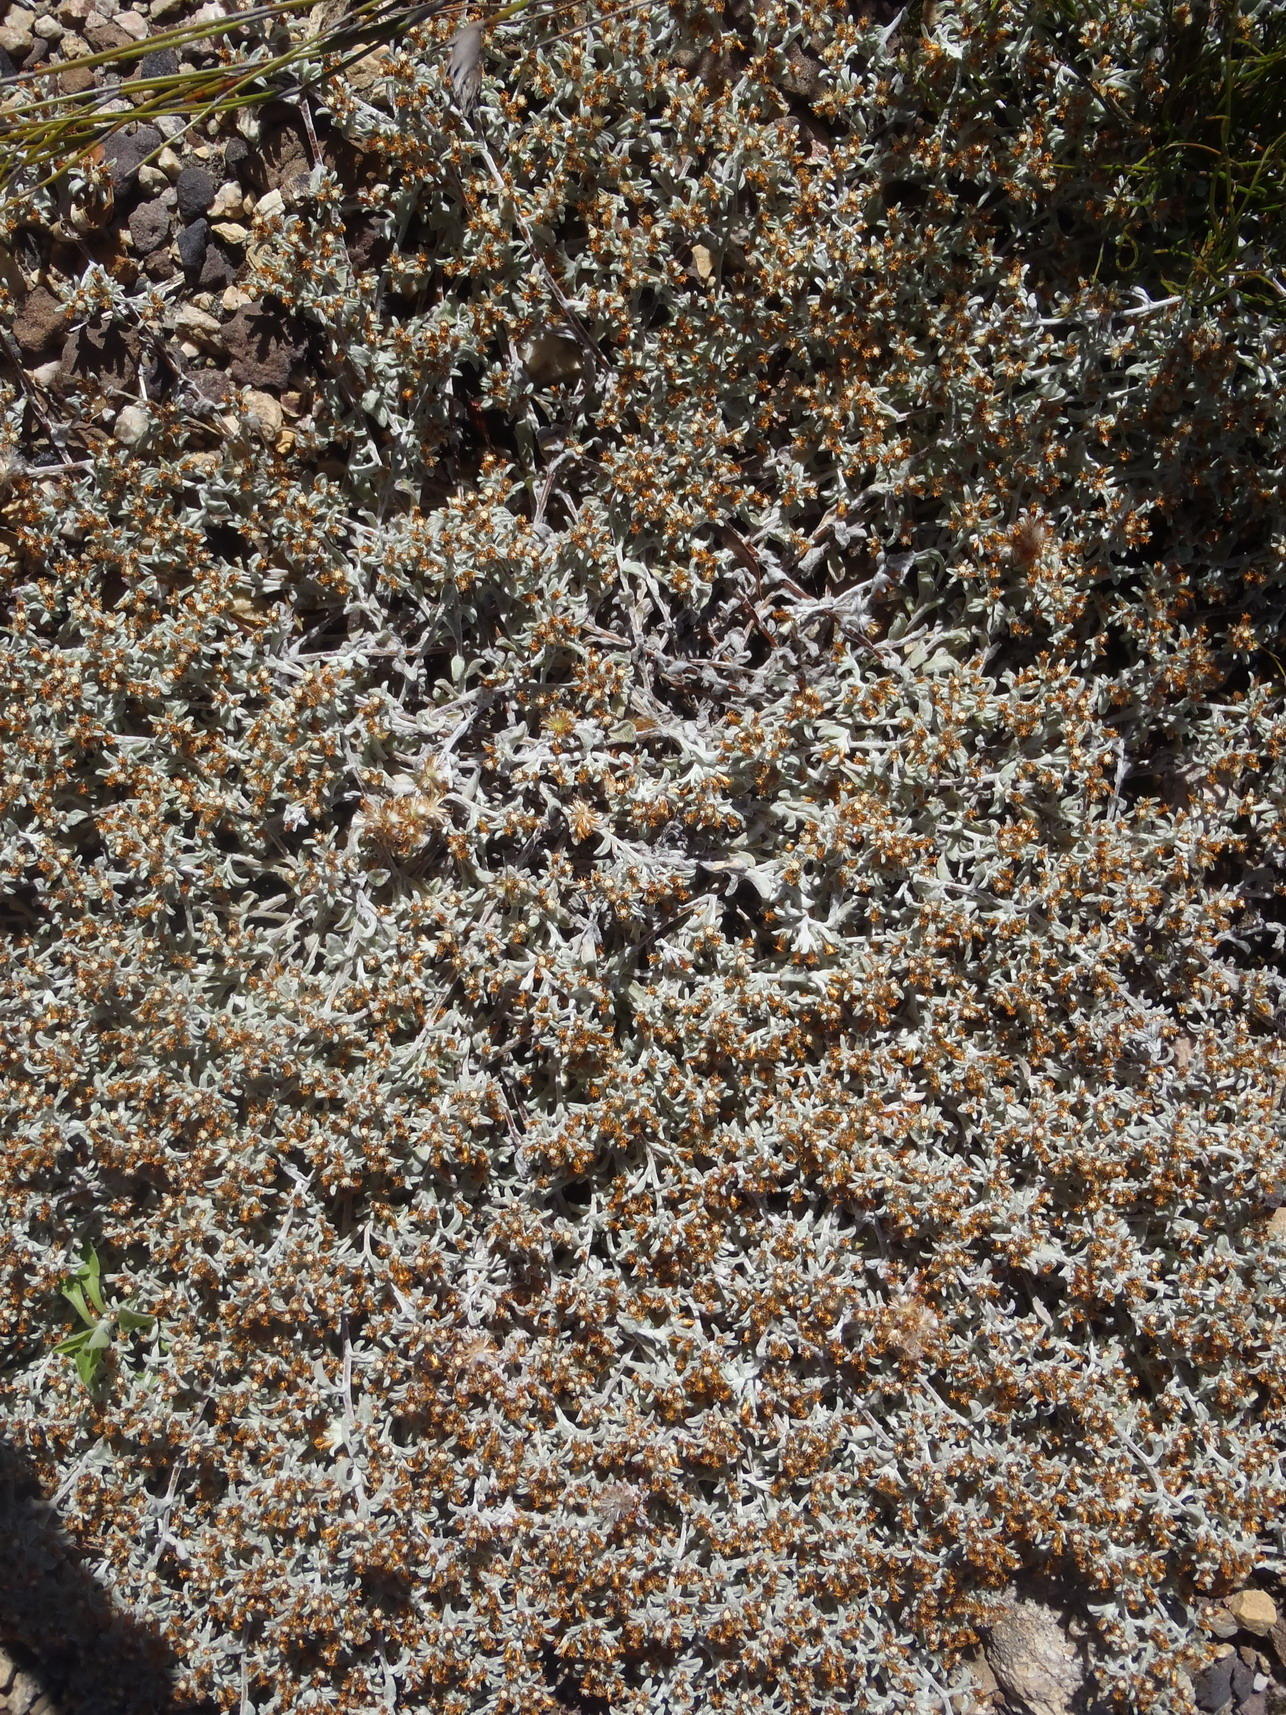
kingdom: Plantae
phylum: Tracheophyta
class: Magnoliopsida
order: Asterales
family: Asteraceae
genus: Helichrysum
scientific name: Helichrysum tinctum
